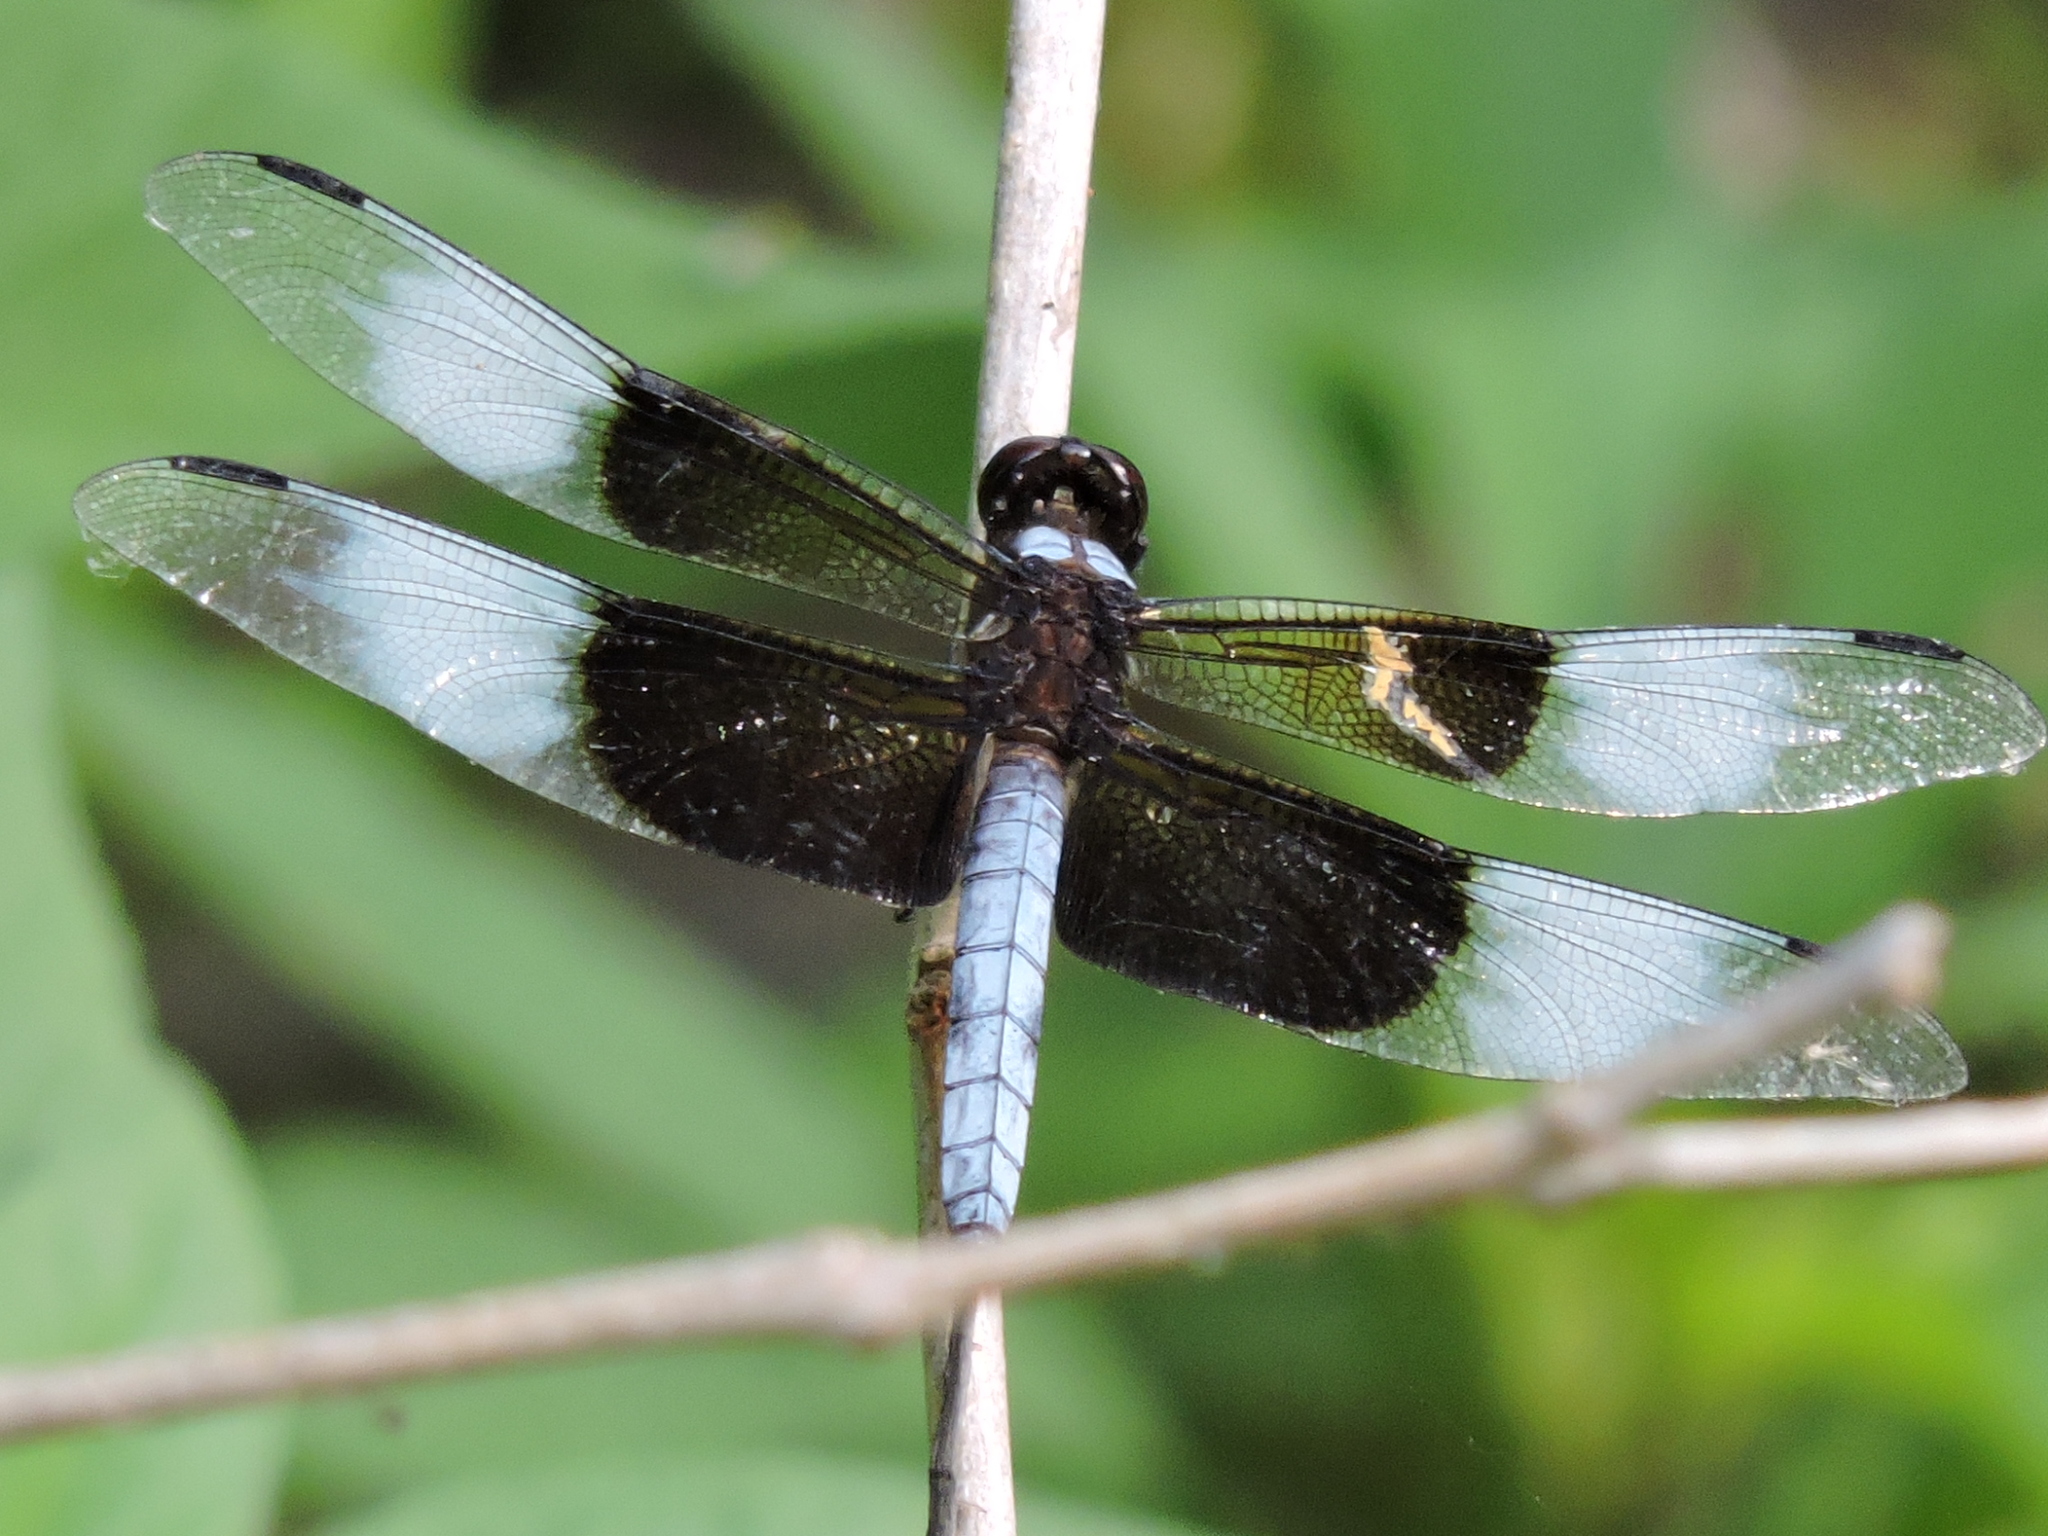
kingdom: Animalia
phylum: Arthropoda
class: Insecta
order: Odonata
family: Libellulidae
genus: Libellula
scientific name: Libellula luctuosa
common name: Widow skimmer
